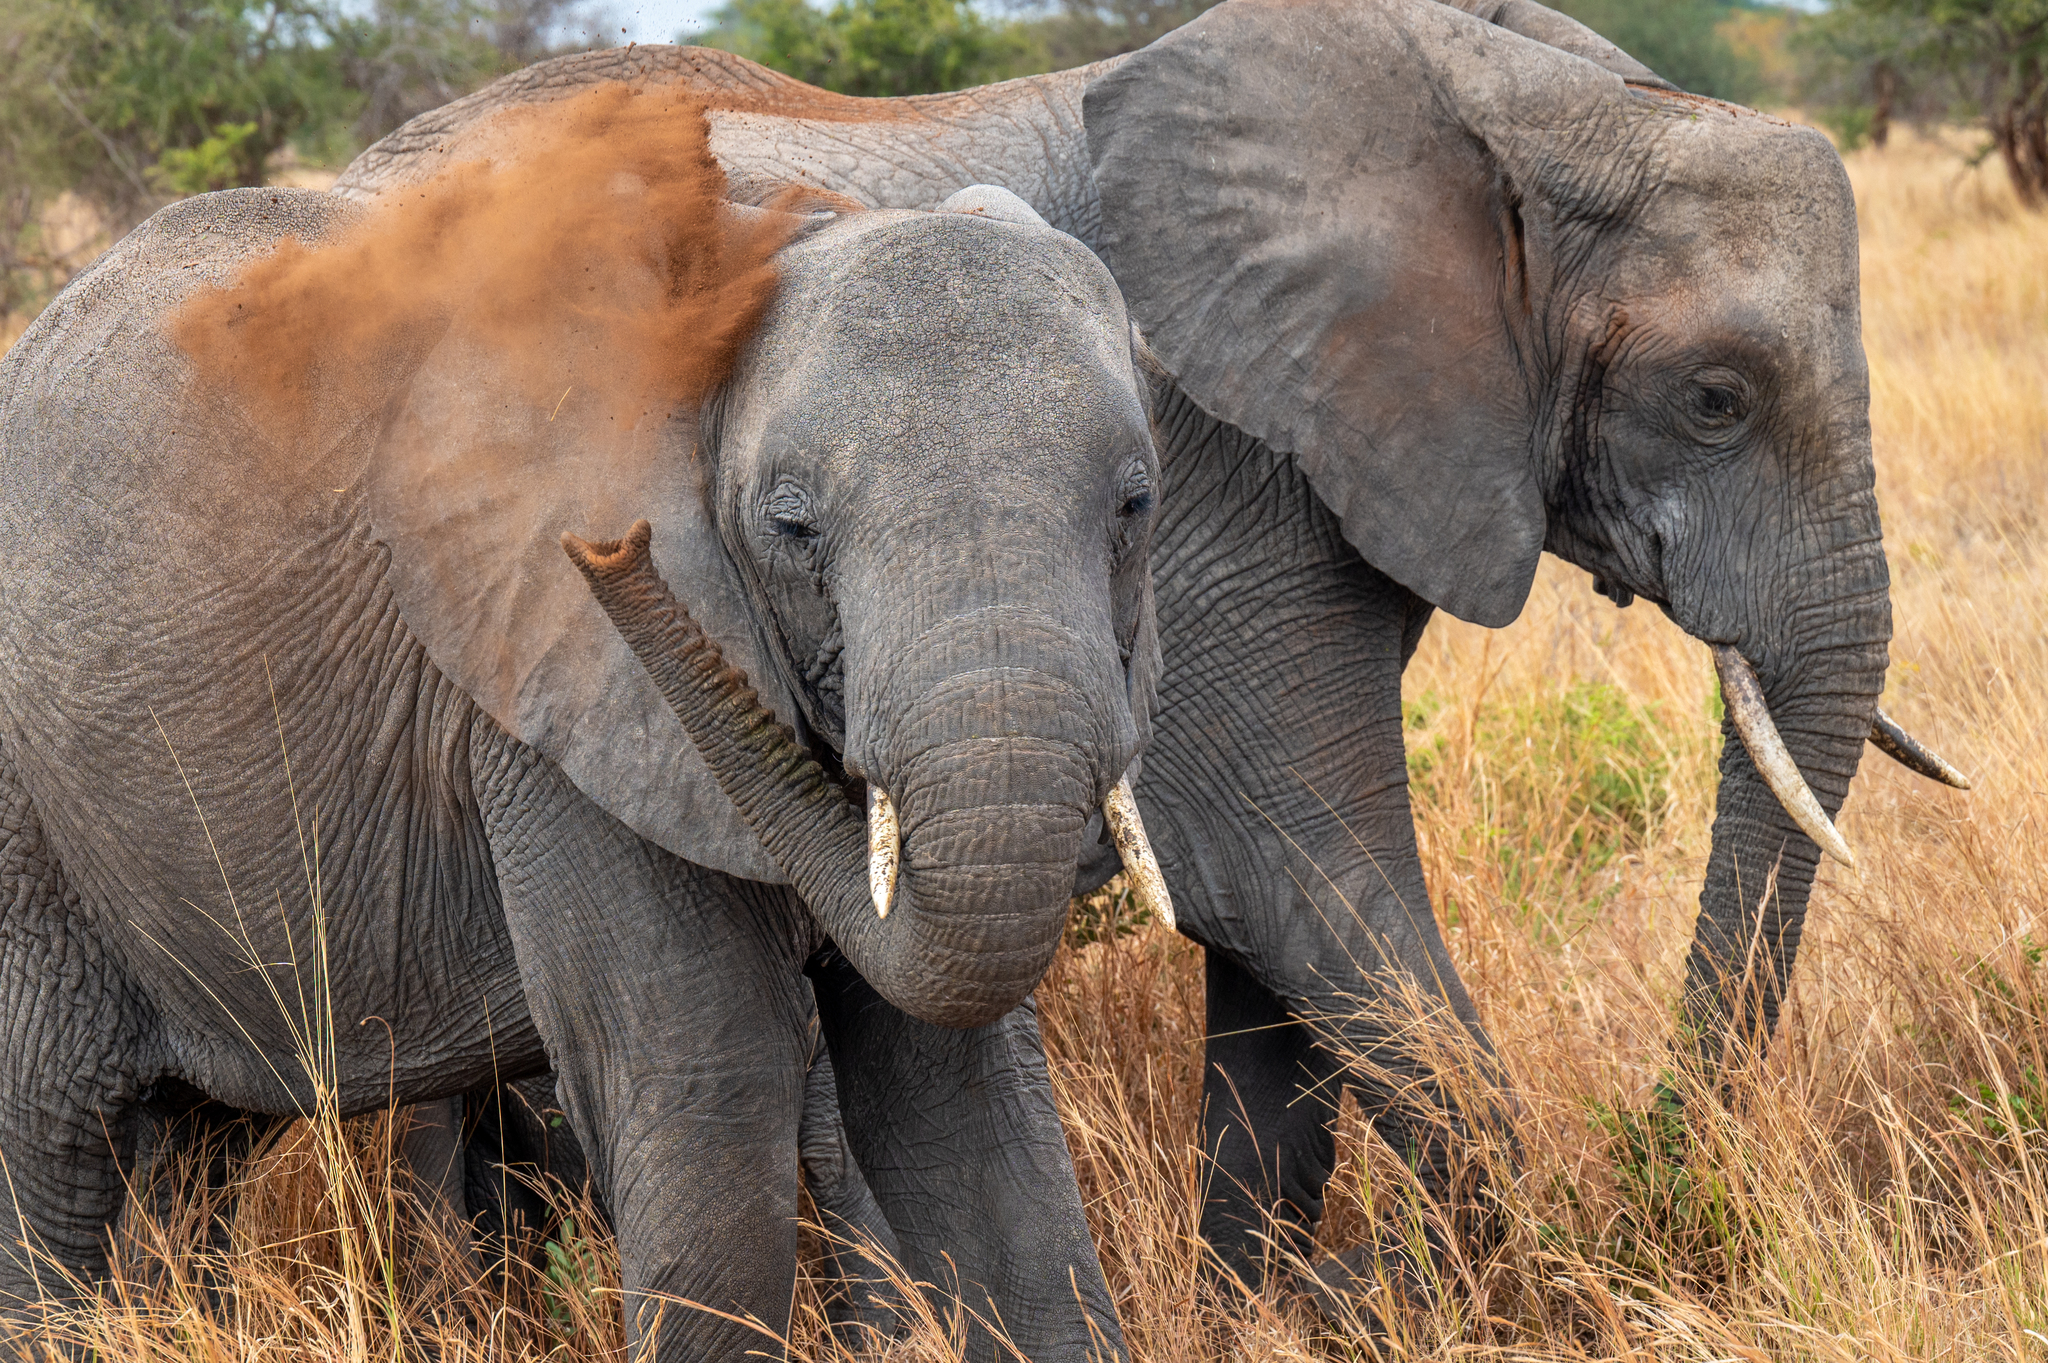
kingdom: Animalia
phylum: Chordata
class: Mammalia
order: Proboscidea
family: Elephantidae
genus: Loxodonta
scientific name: Loxodonta africana
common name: African elephant
